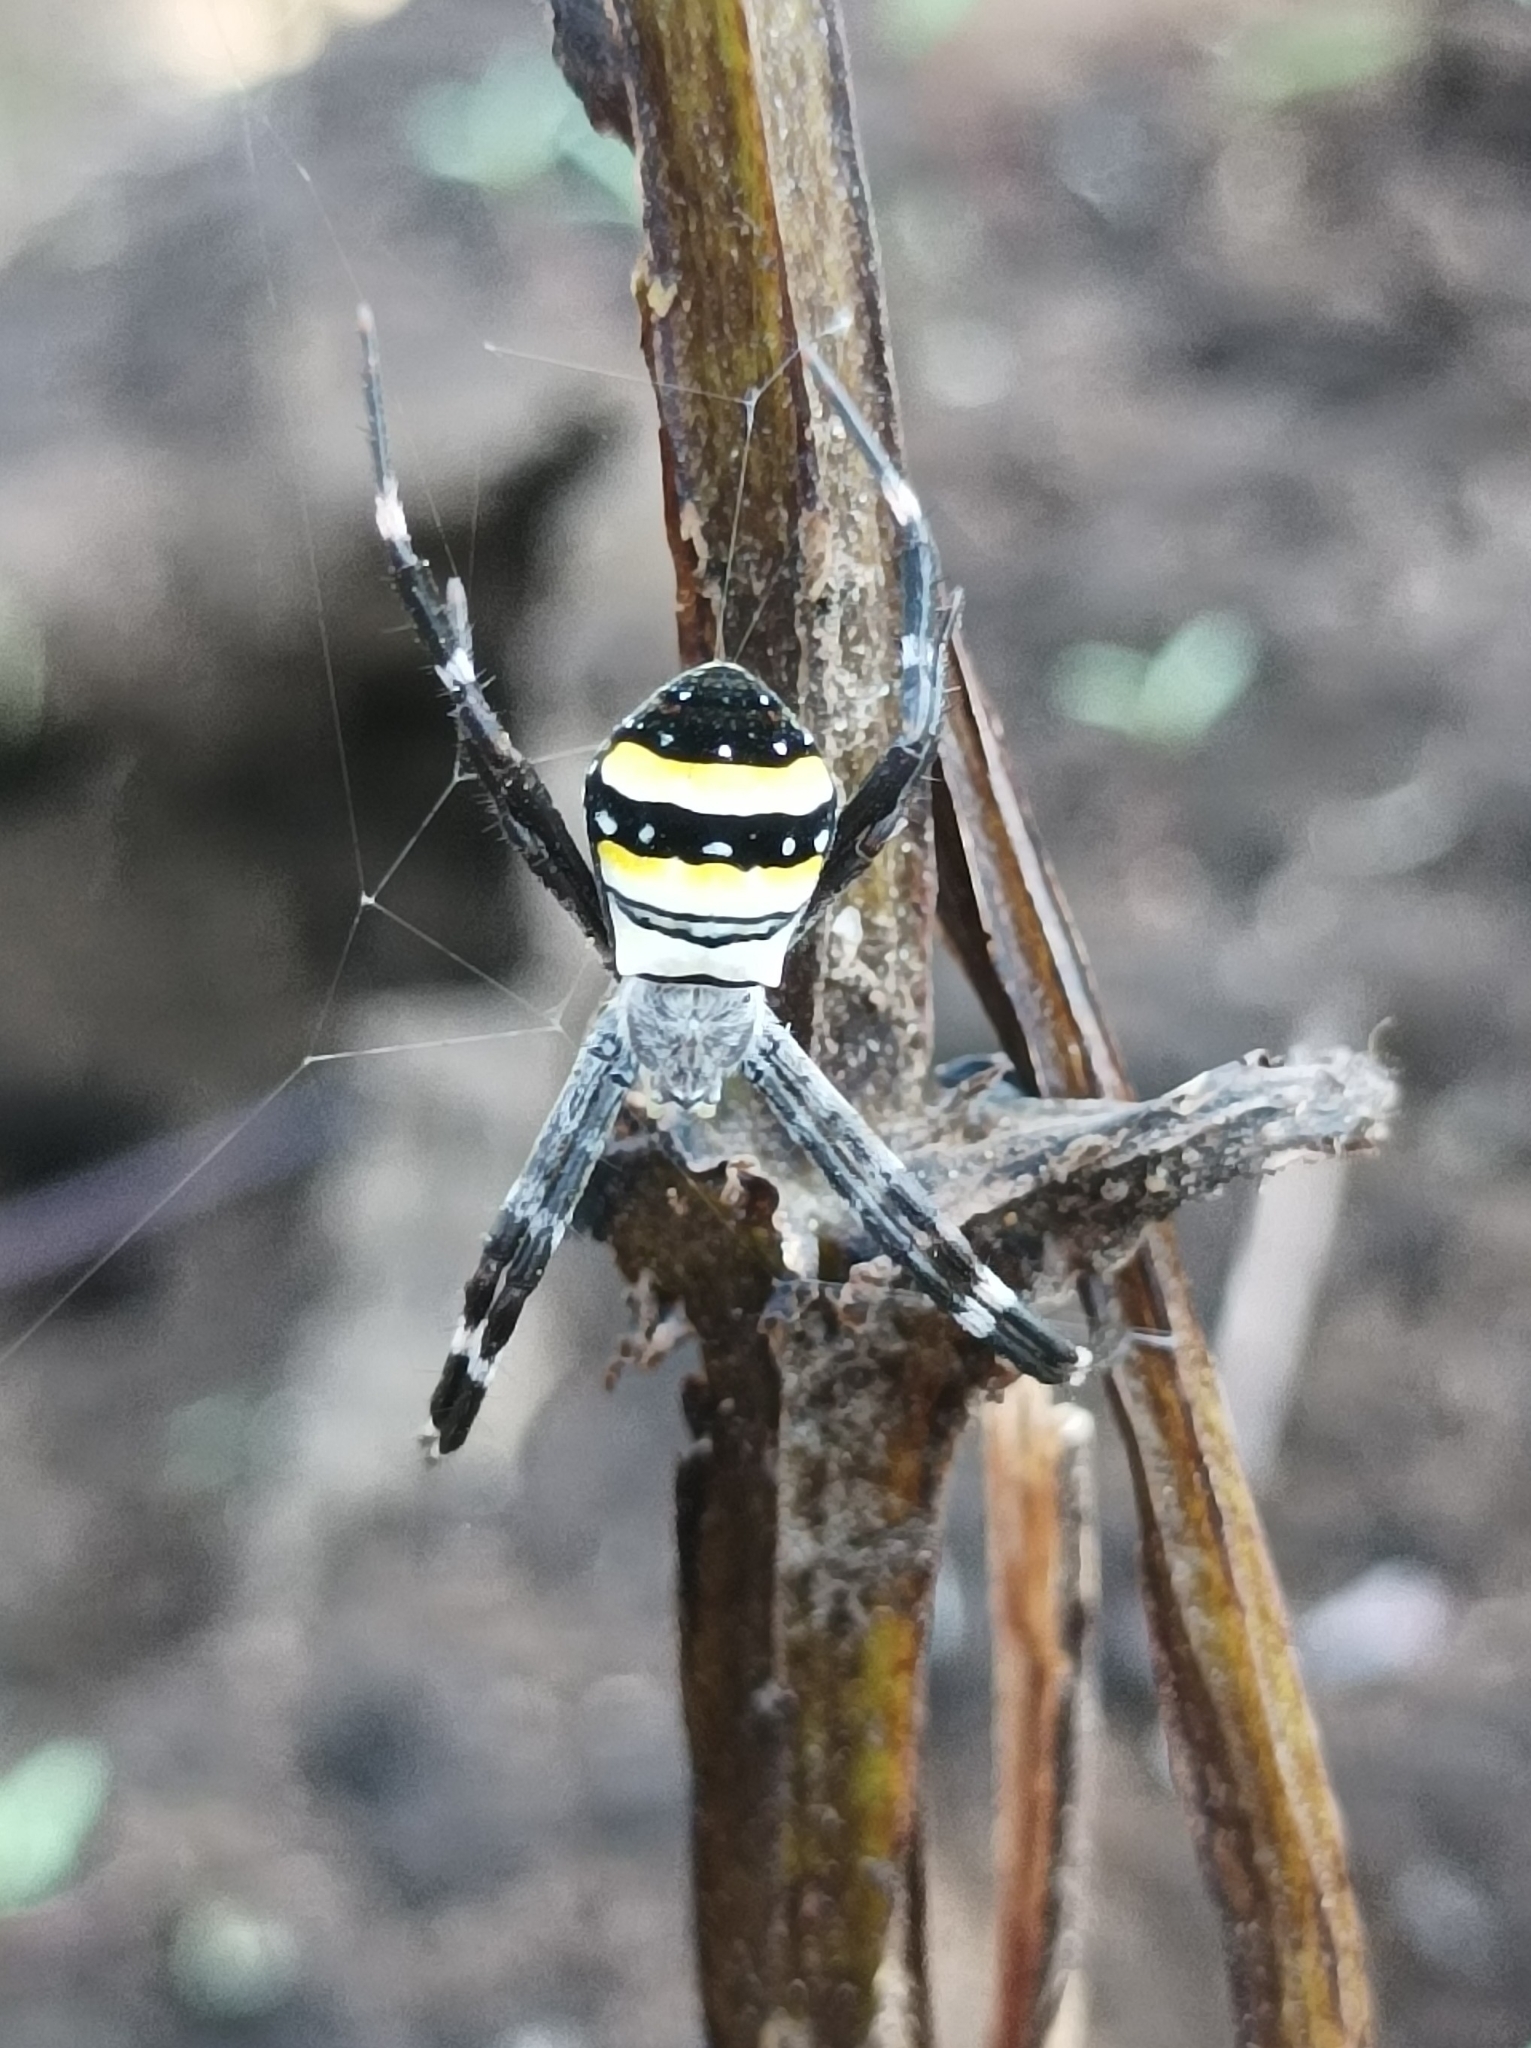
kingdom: Animalia
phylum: Arthropoda
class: Arachnida
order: Araneae
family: Araneidae
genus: Argiope
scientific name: Argiope caledonia
